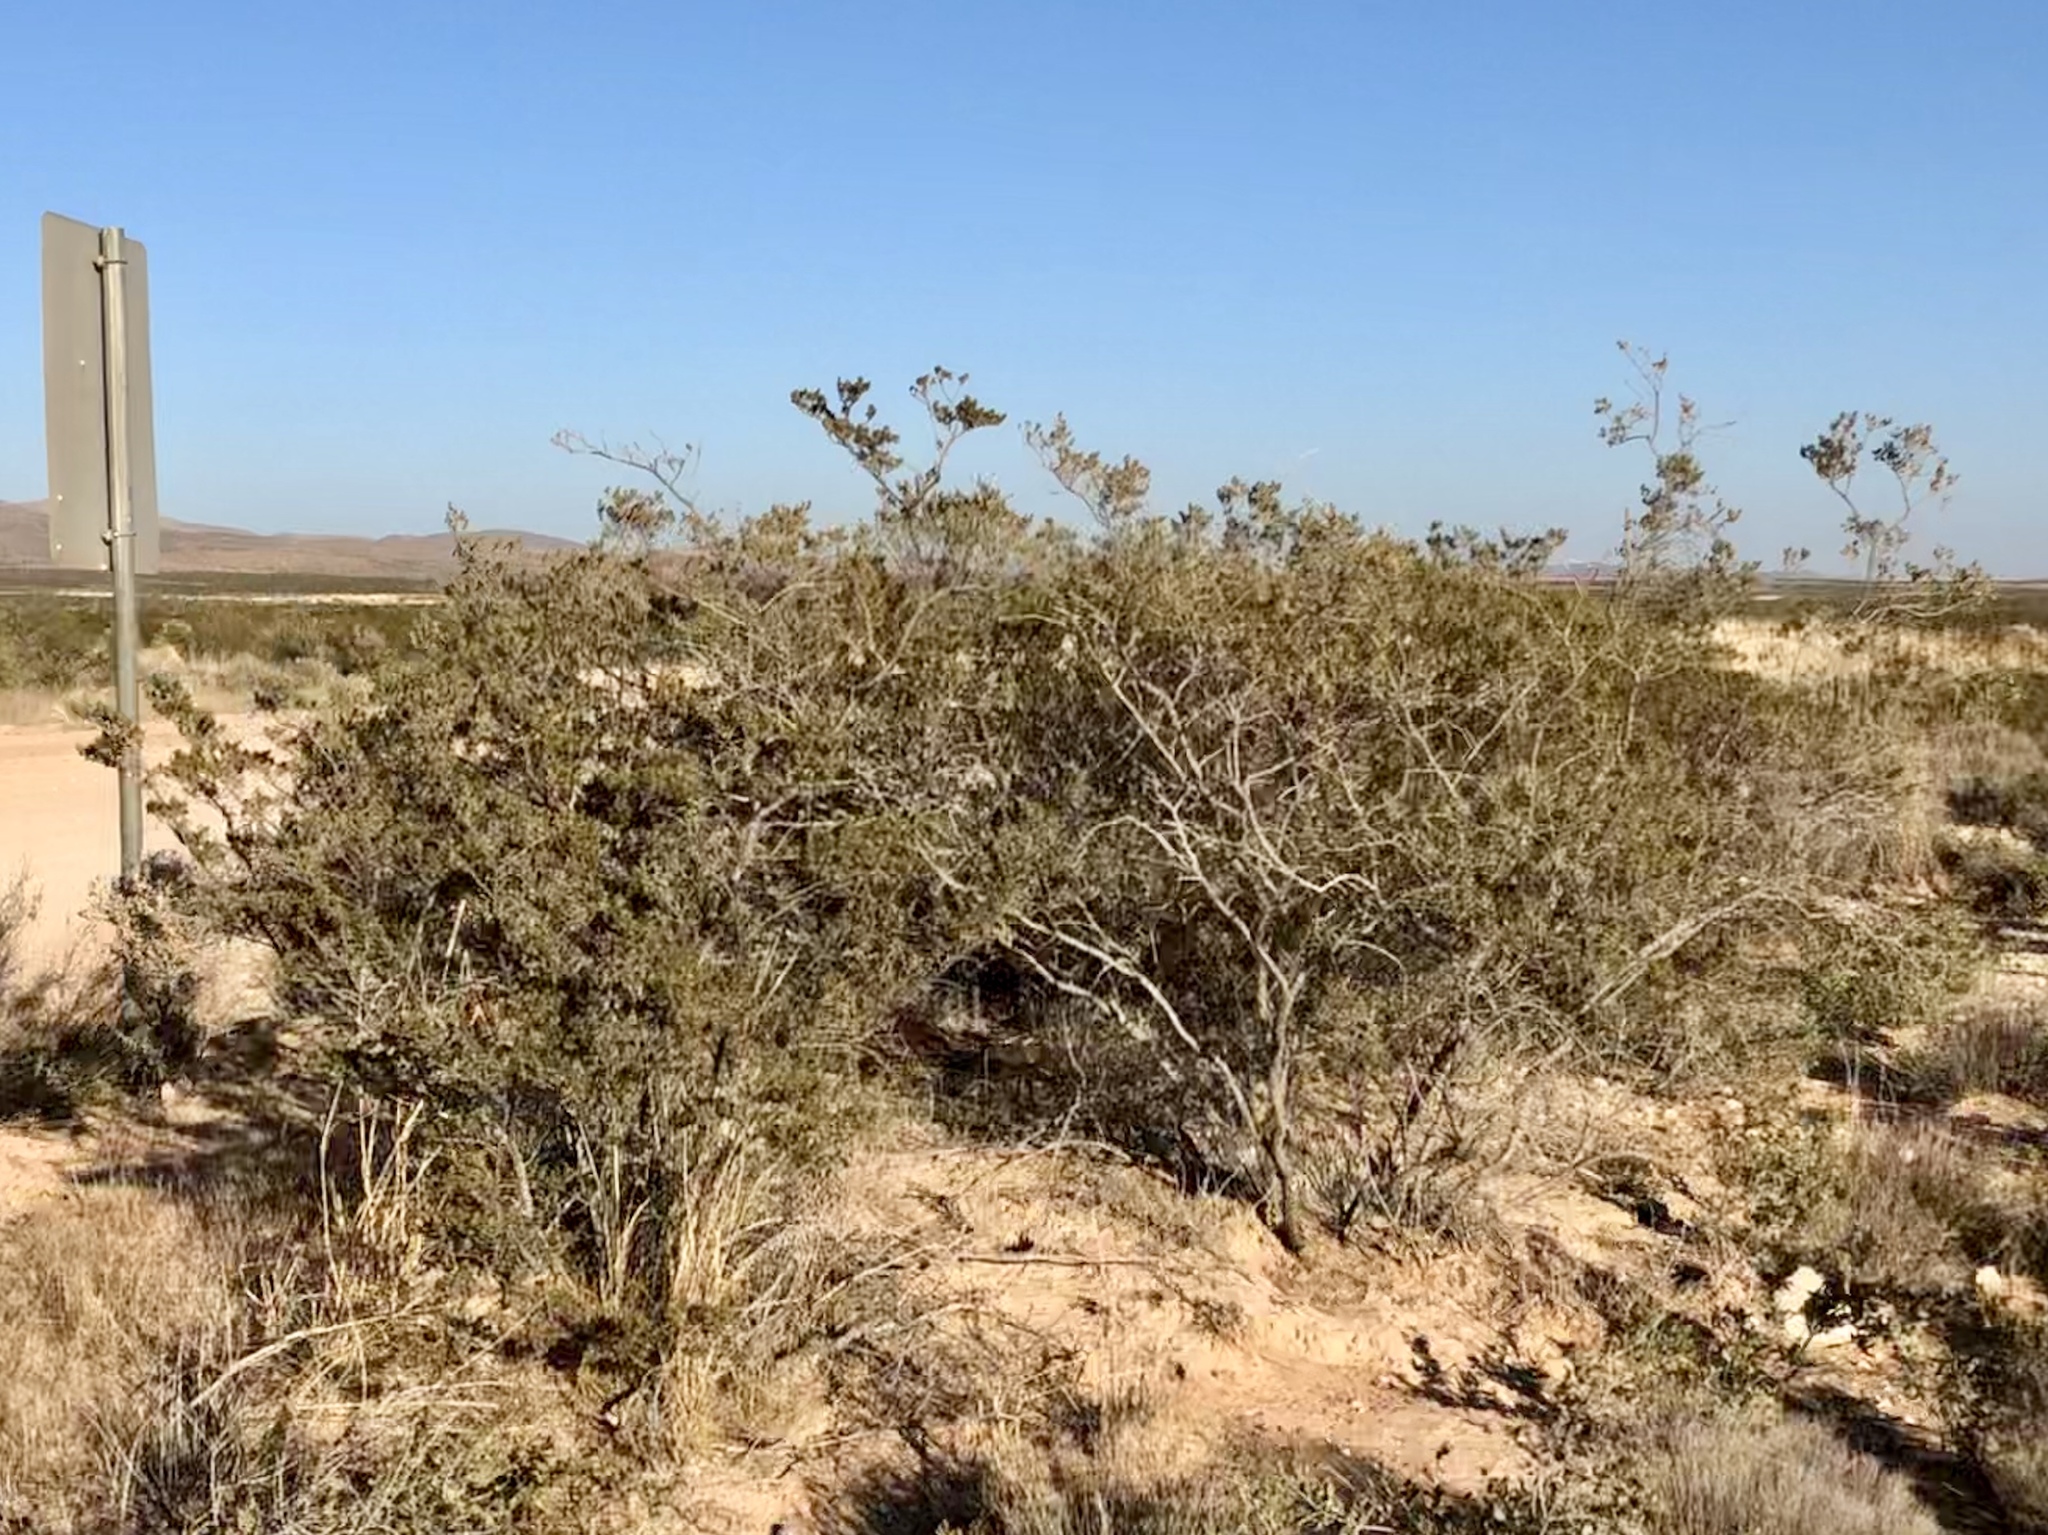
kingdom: Plantae
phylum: Tracheophyta
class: Magnoliopsida
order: Zygophyllales
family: Zygophyllaceae
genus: Larrea
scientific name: Larrea tridentata
